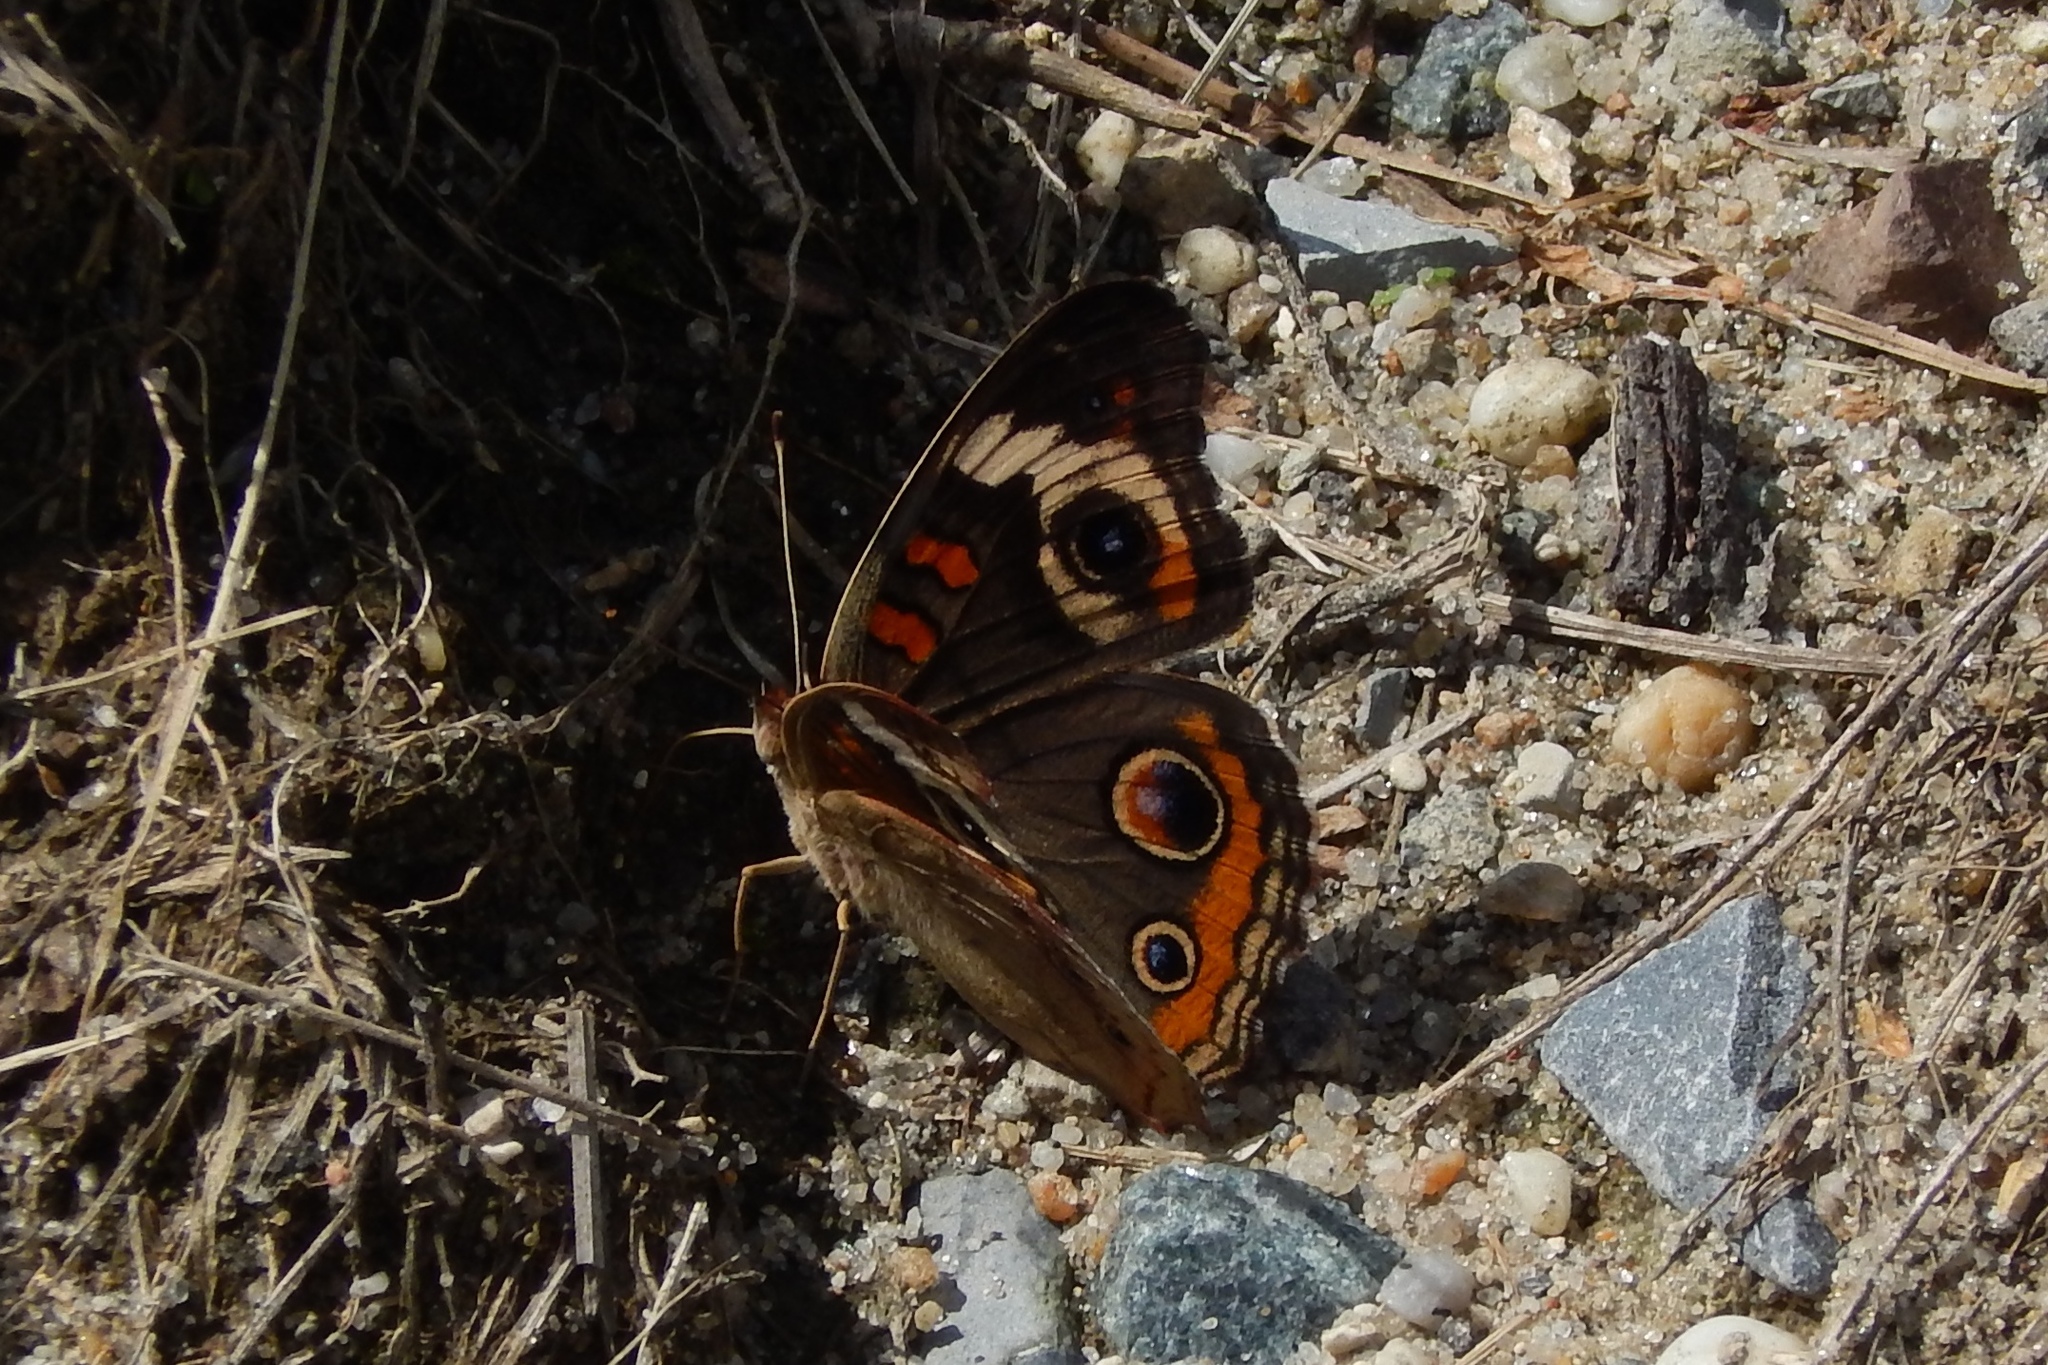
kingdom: Animalia
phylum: Arthropoda
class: Insecta
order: Lepidoptera
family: Nymphalidae
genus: Junonia
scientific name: Junonia coenia
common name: Common buckeye
